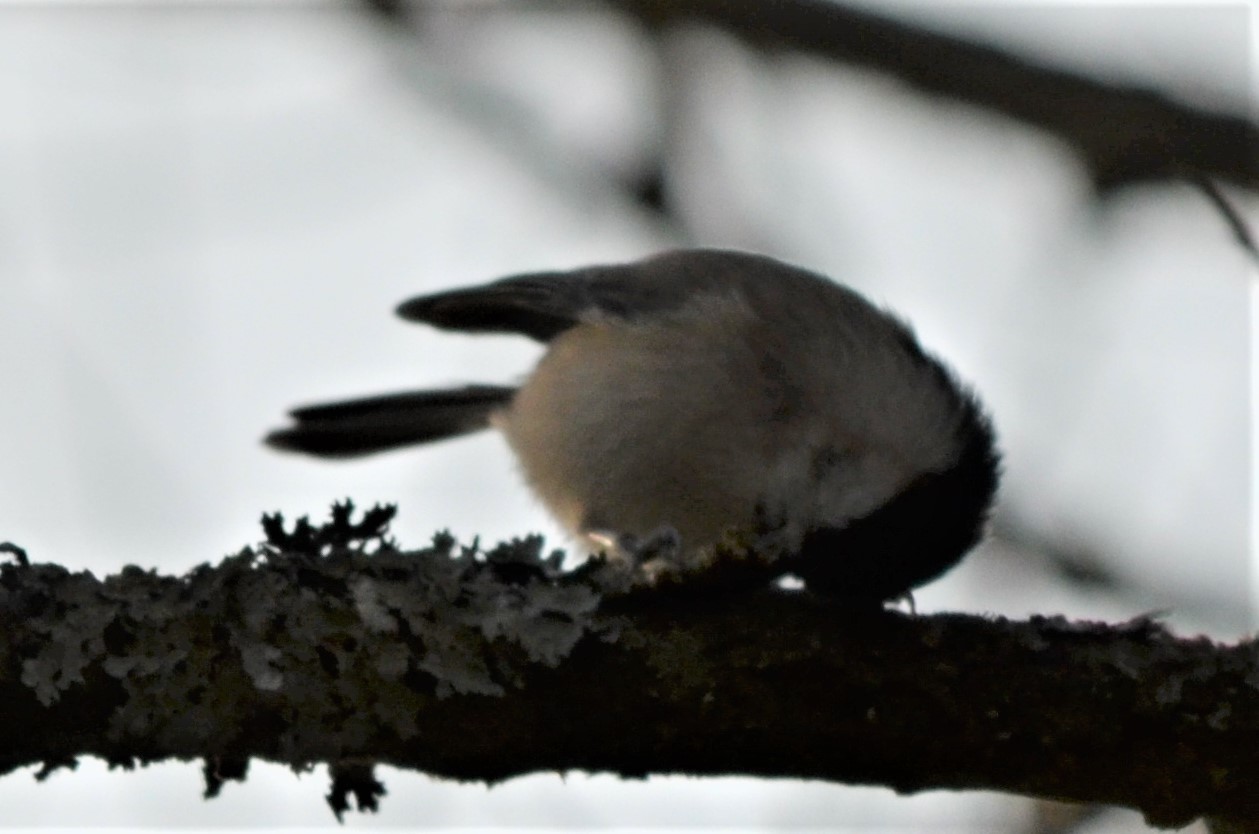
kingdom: Animalia
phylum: Chordata
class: Aves
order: Passeriformes
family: Paridae
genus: Poecile
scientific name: Poecile palustris
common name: Marsh tit
